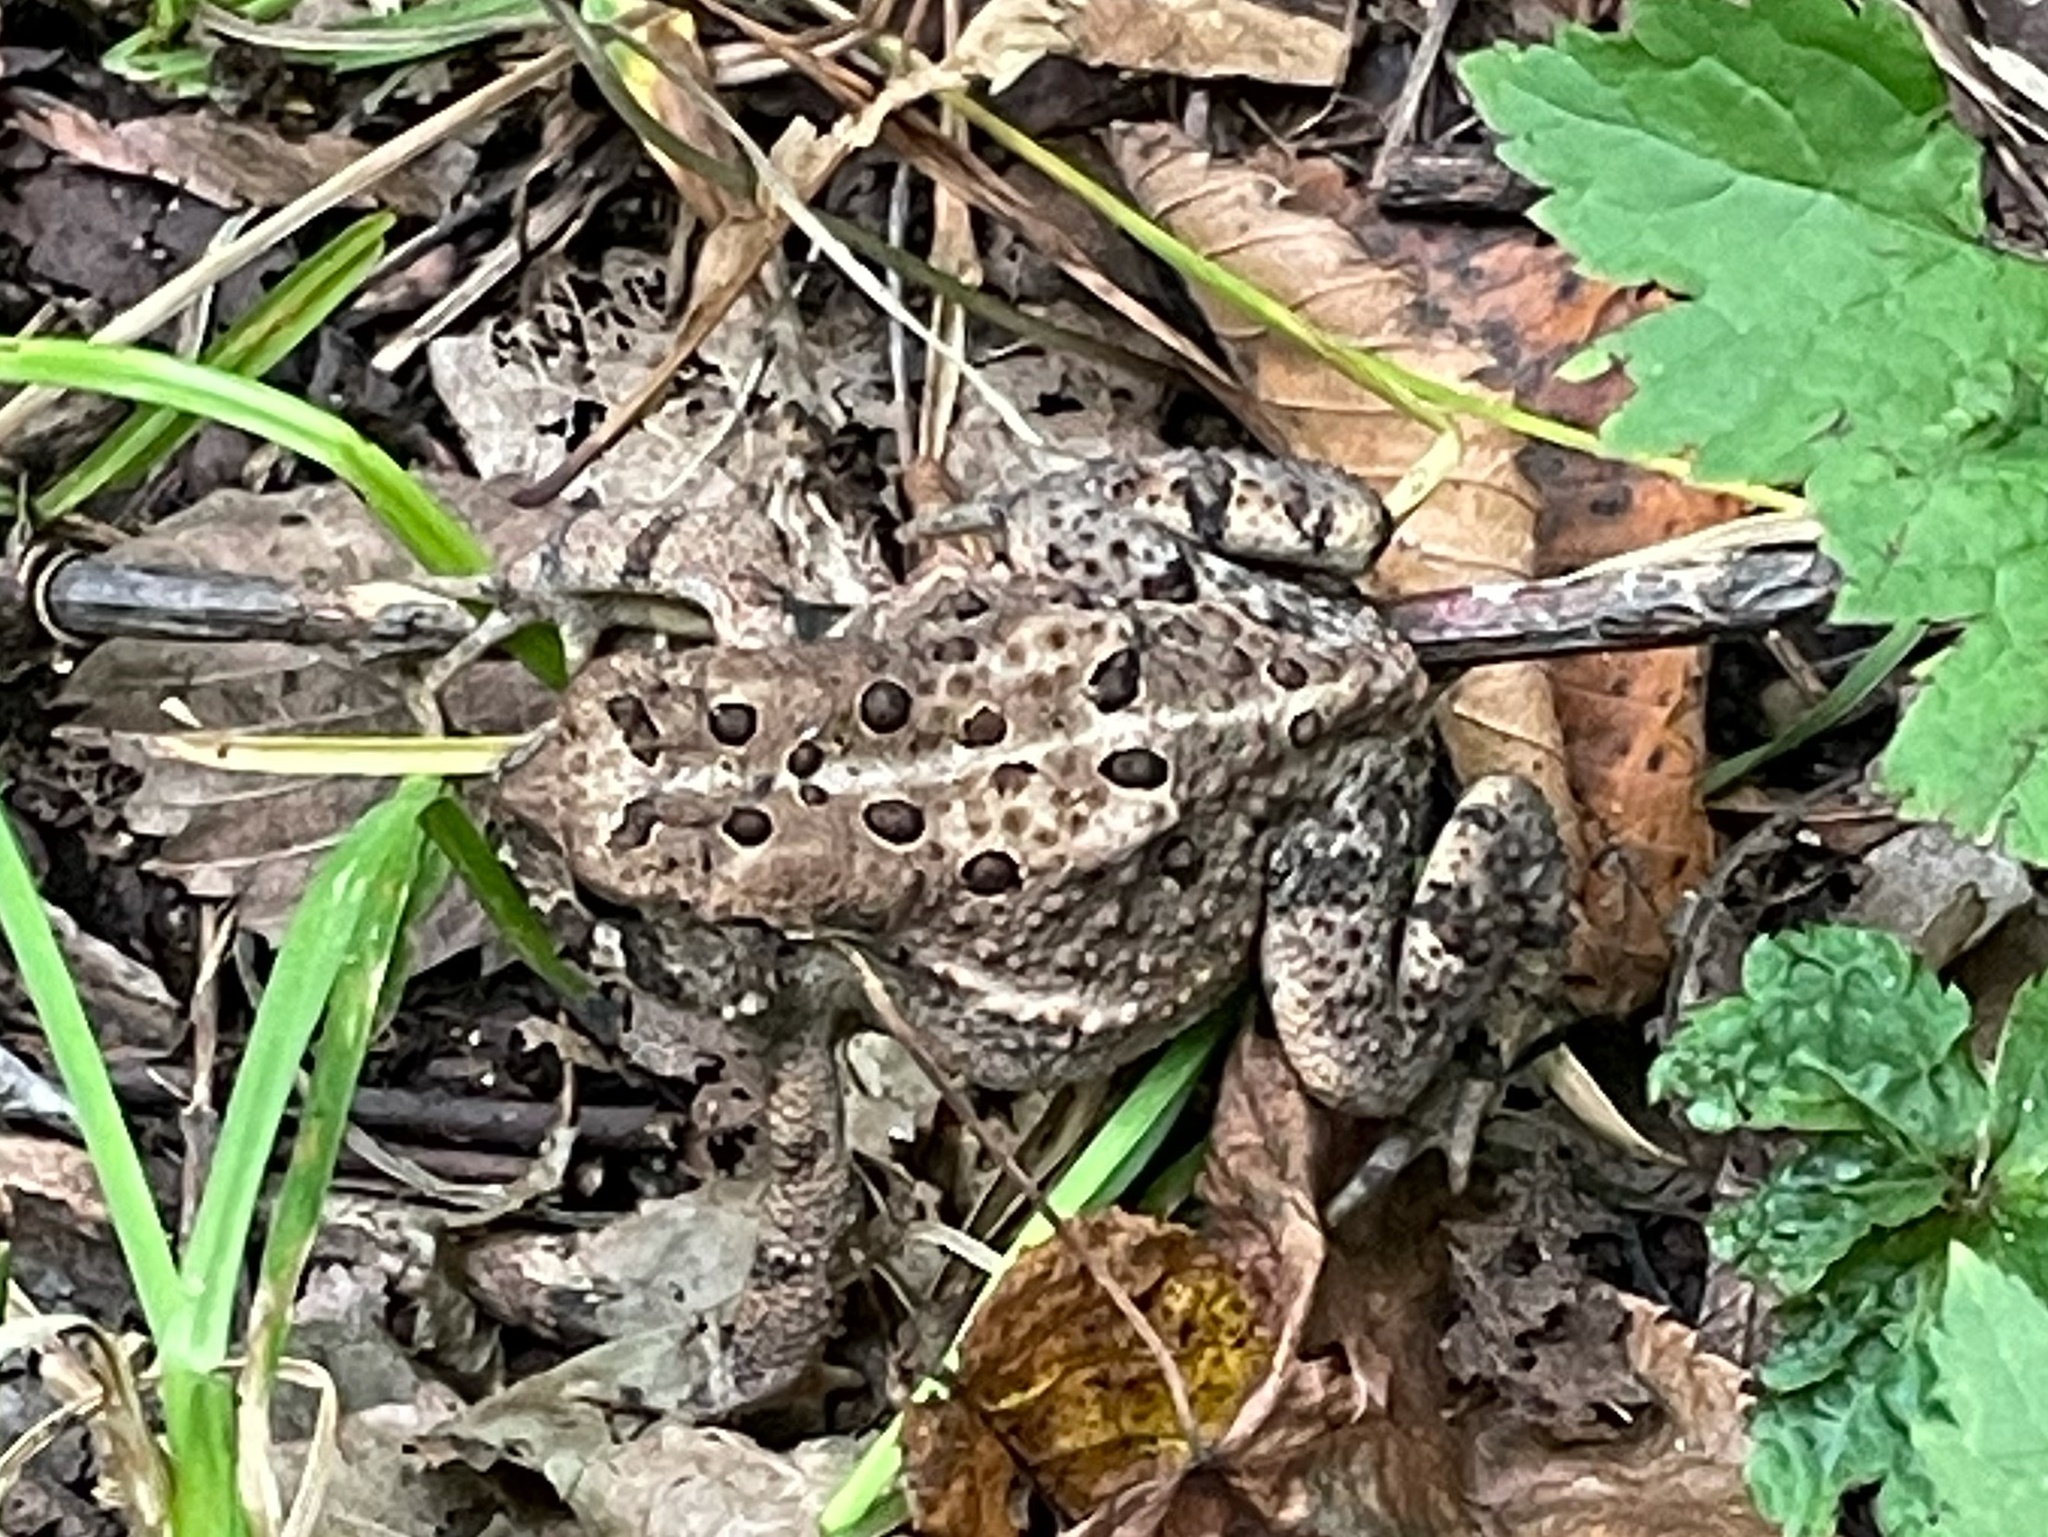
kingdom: Animalia
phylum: Chordata
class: Amphibia
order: Anura
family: Bufonidae
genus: Anaxyrus
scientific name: Anaxyrus americanus
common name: American toad
